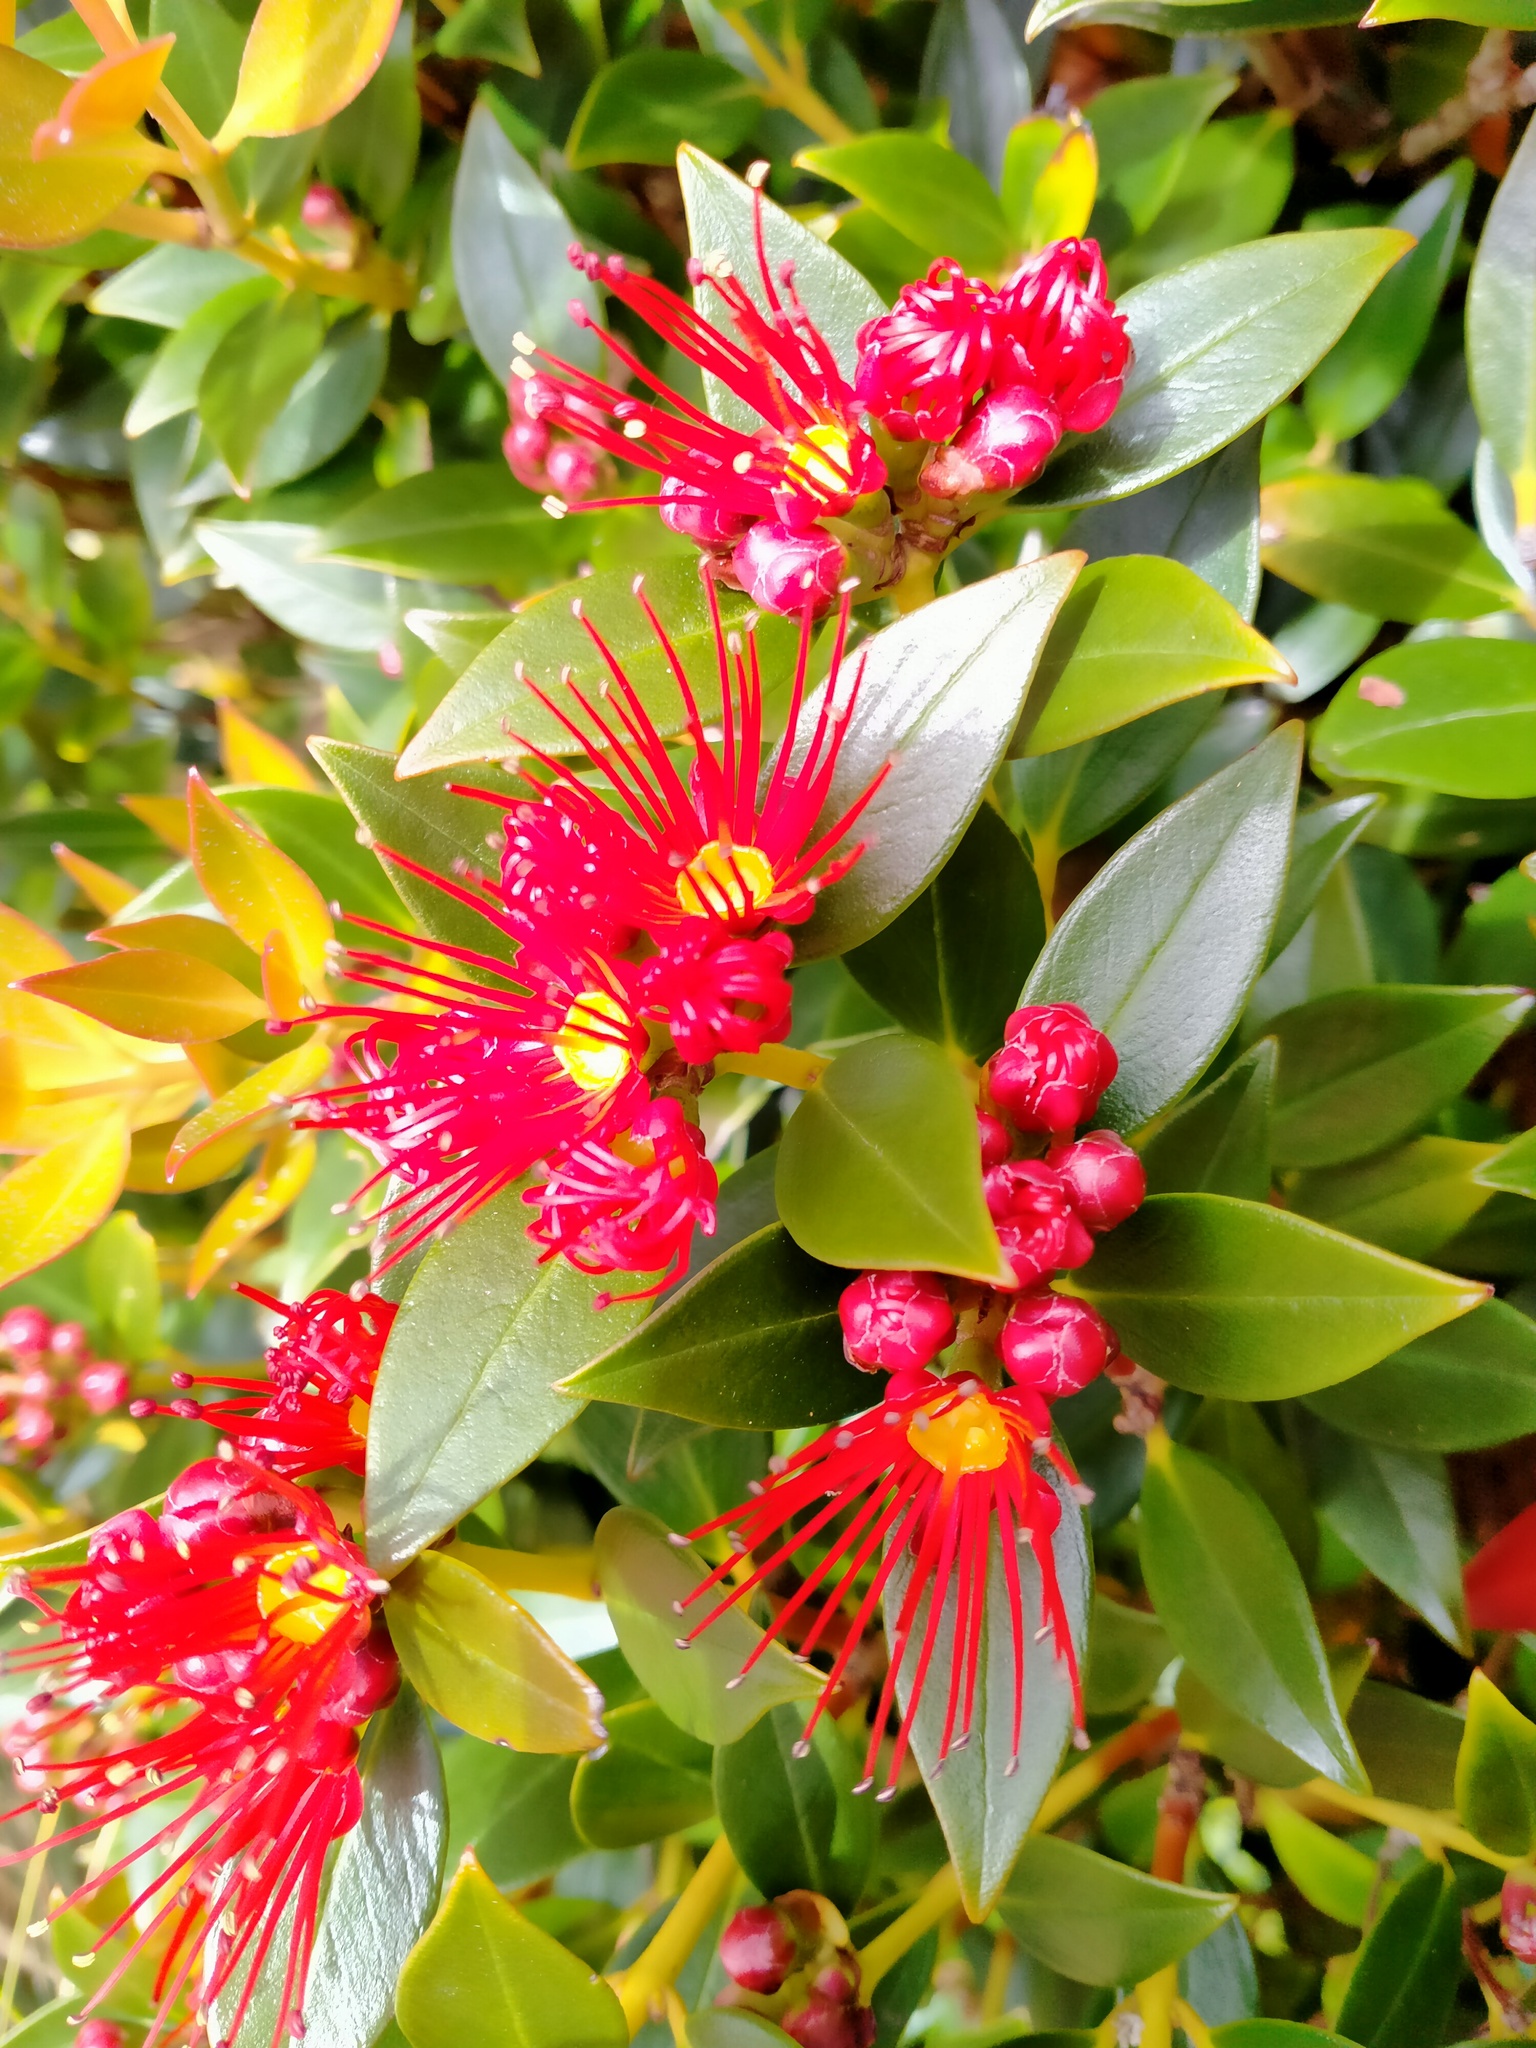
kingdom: Plantae
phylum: Tracheophyta
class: Magnoliopsida
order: Myrtales
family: Myrtaceae
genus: Metrosideros
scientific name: Metrosideros umbellata
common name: Southern rata
